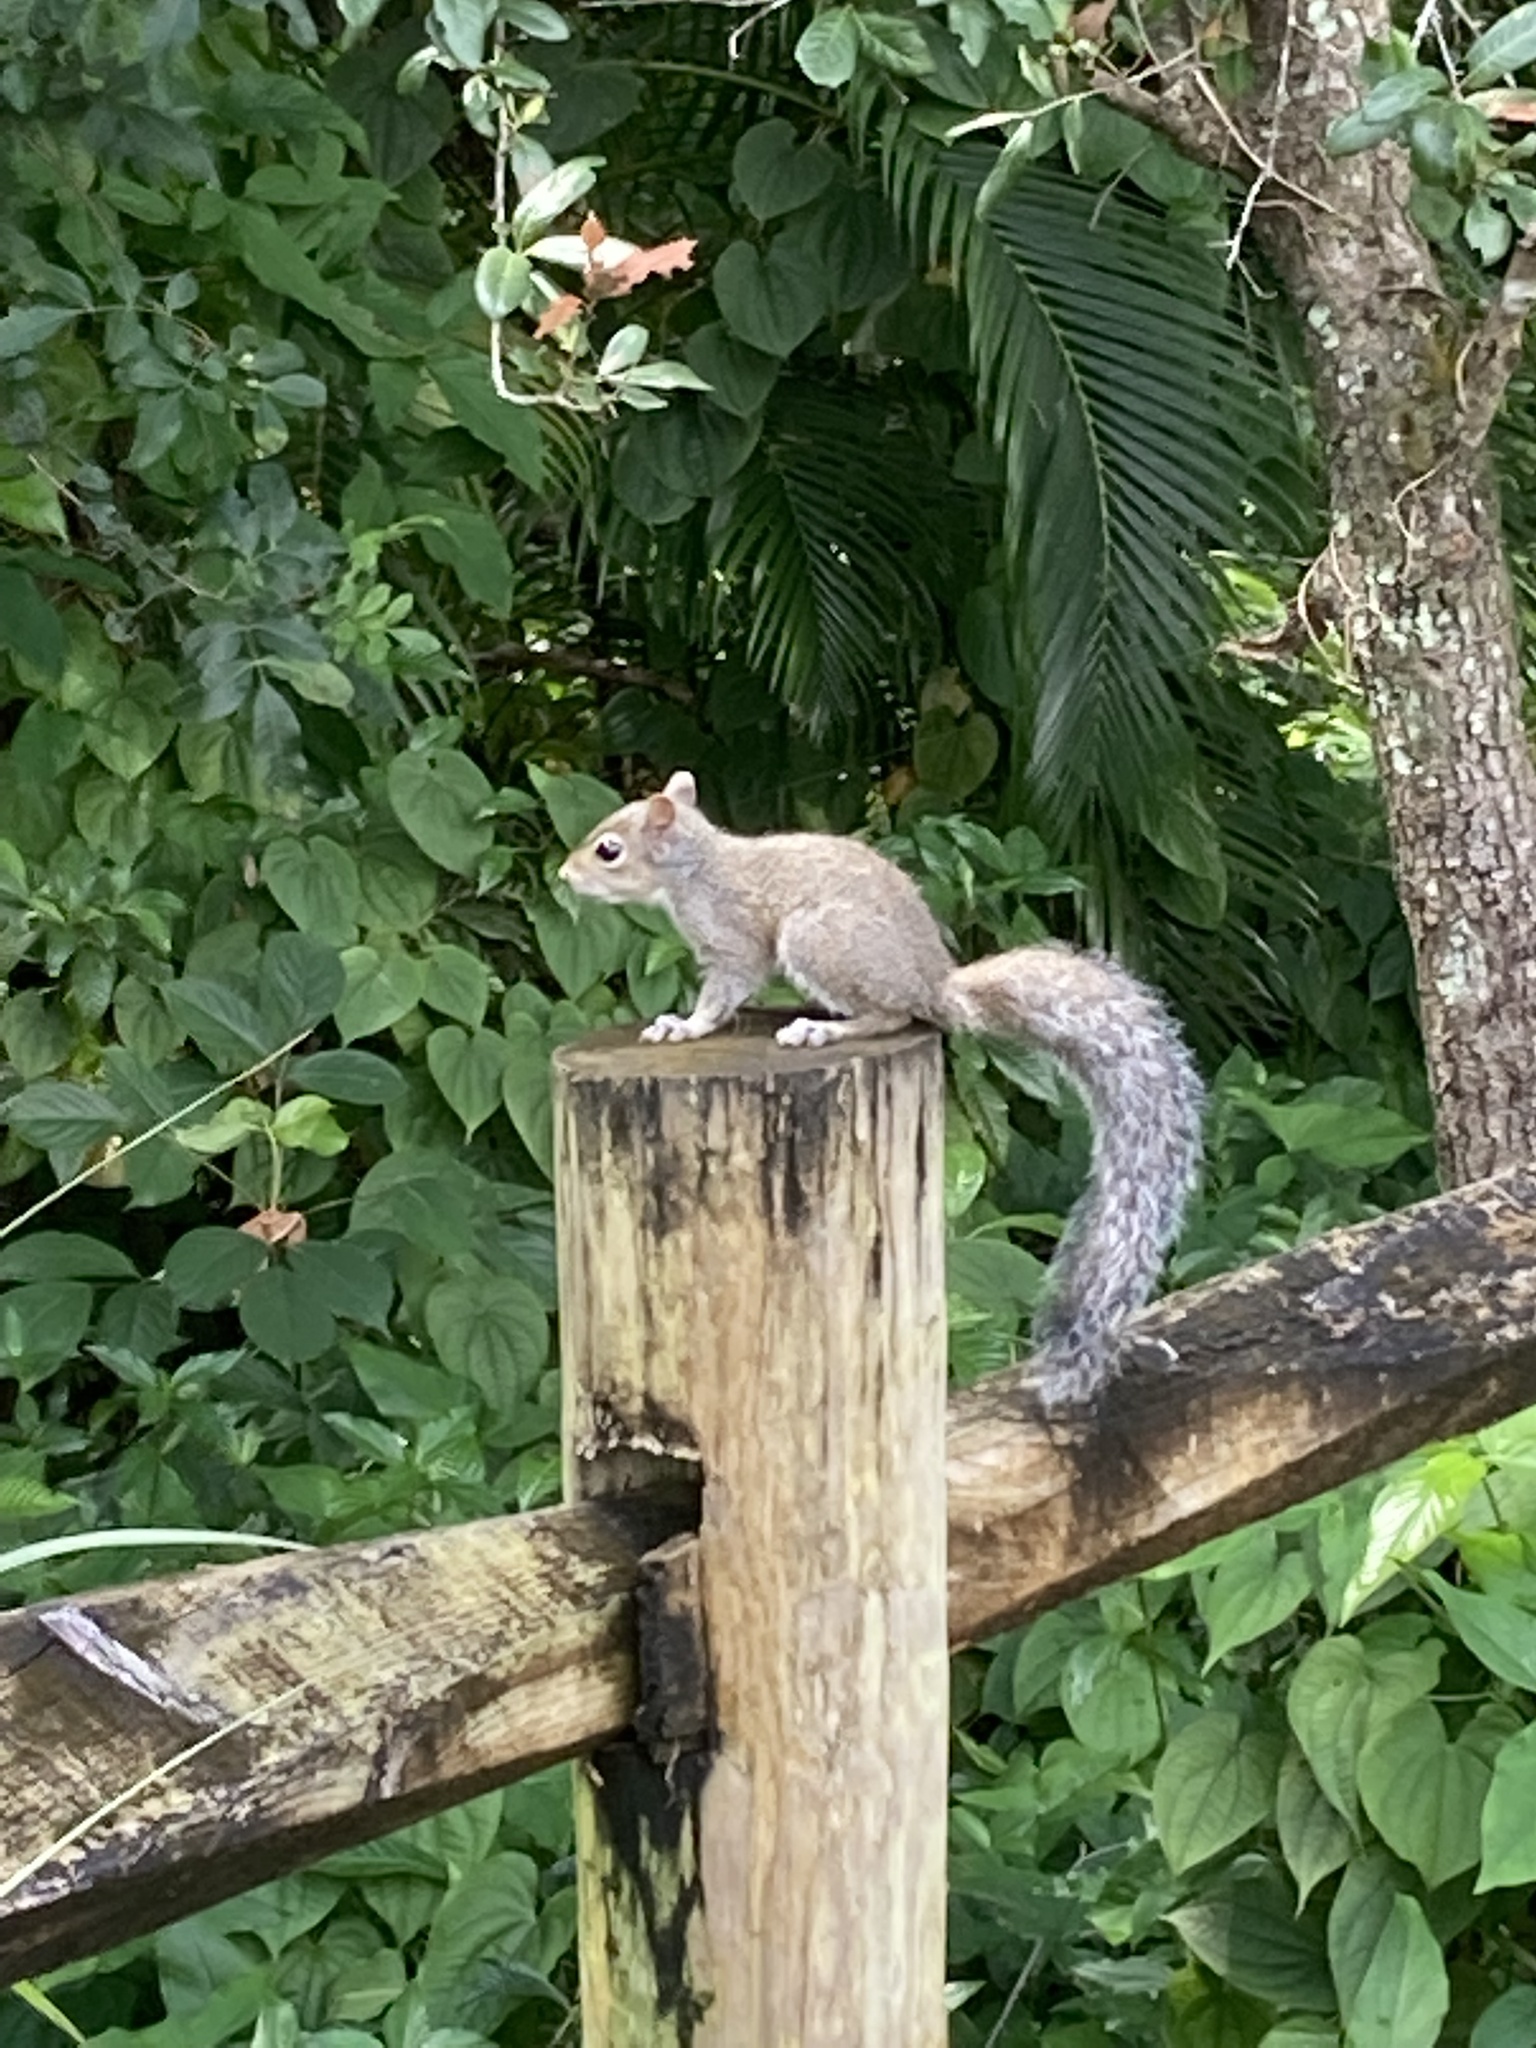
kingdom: Animalia
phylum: Chordata
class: Mammalia
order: Rodentia
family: Sciuridae
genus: Sciurus
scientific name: Sciurus carolinensis
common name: Eastern gray squirrel
